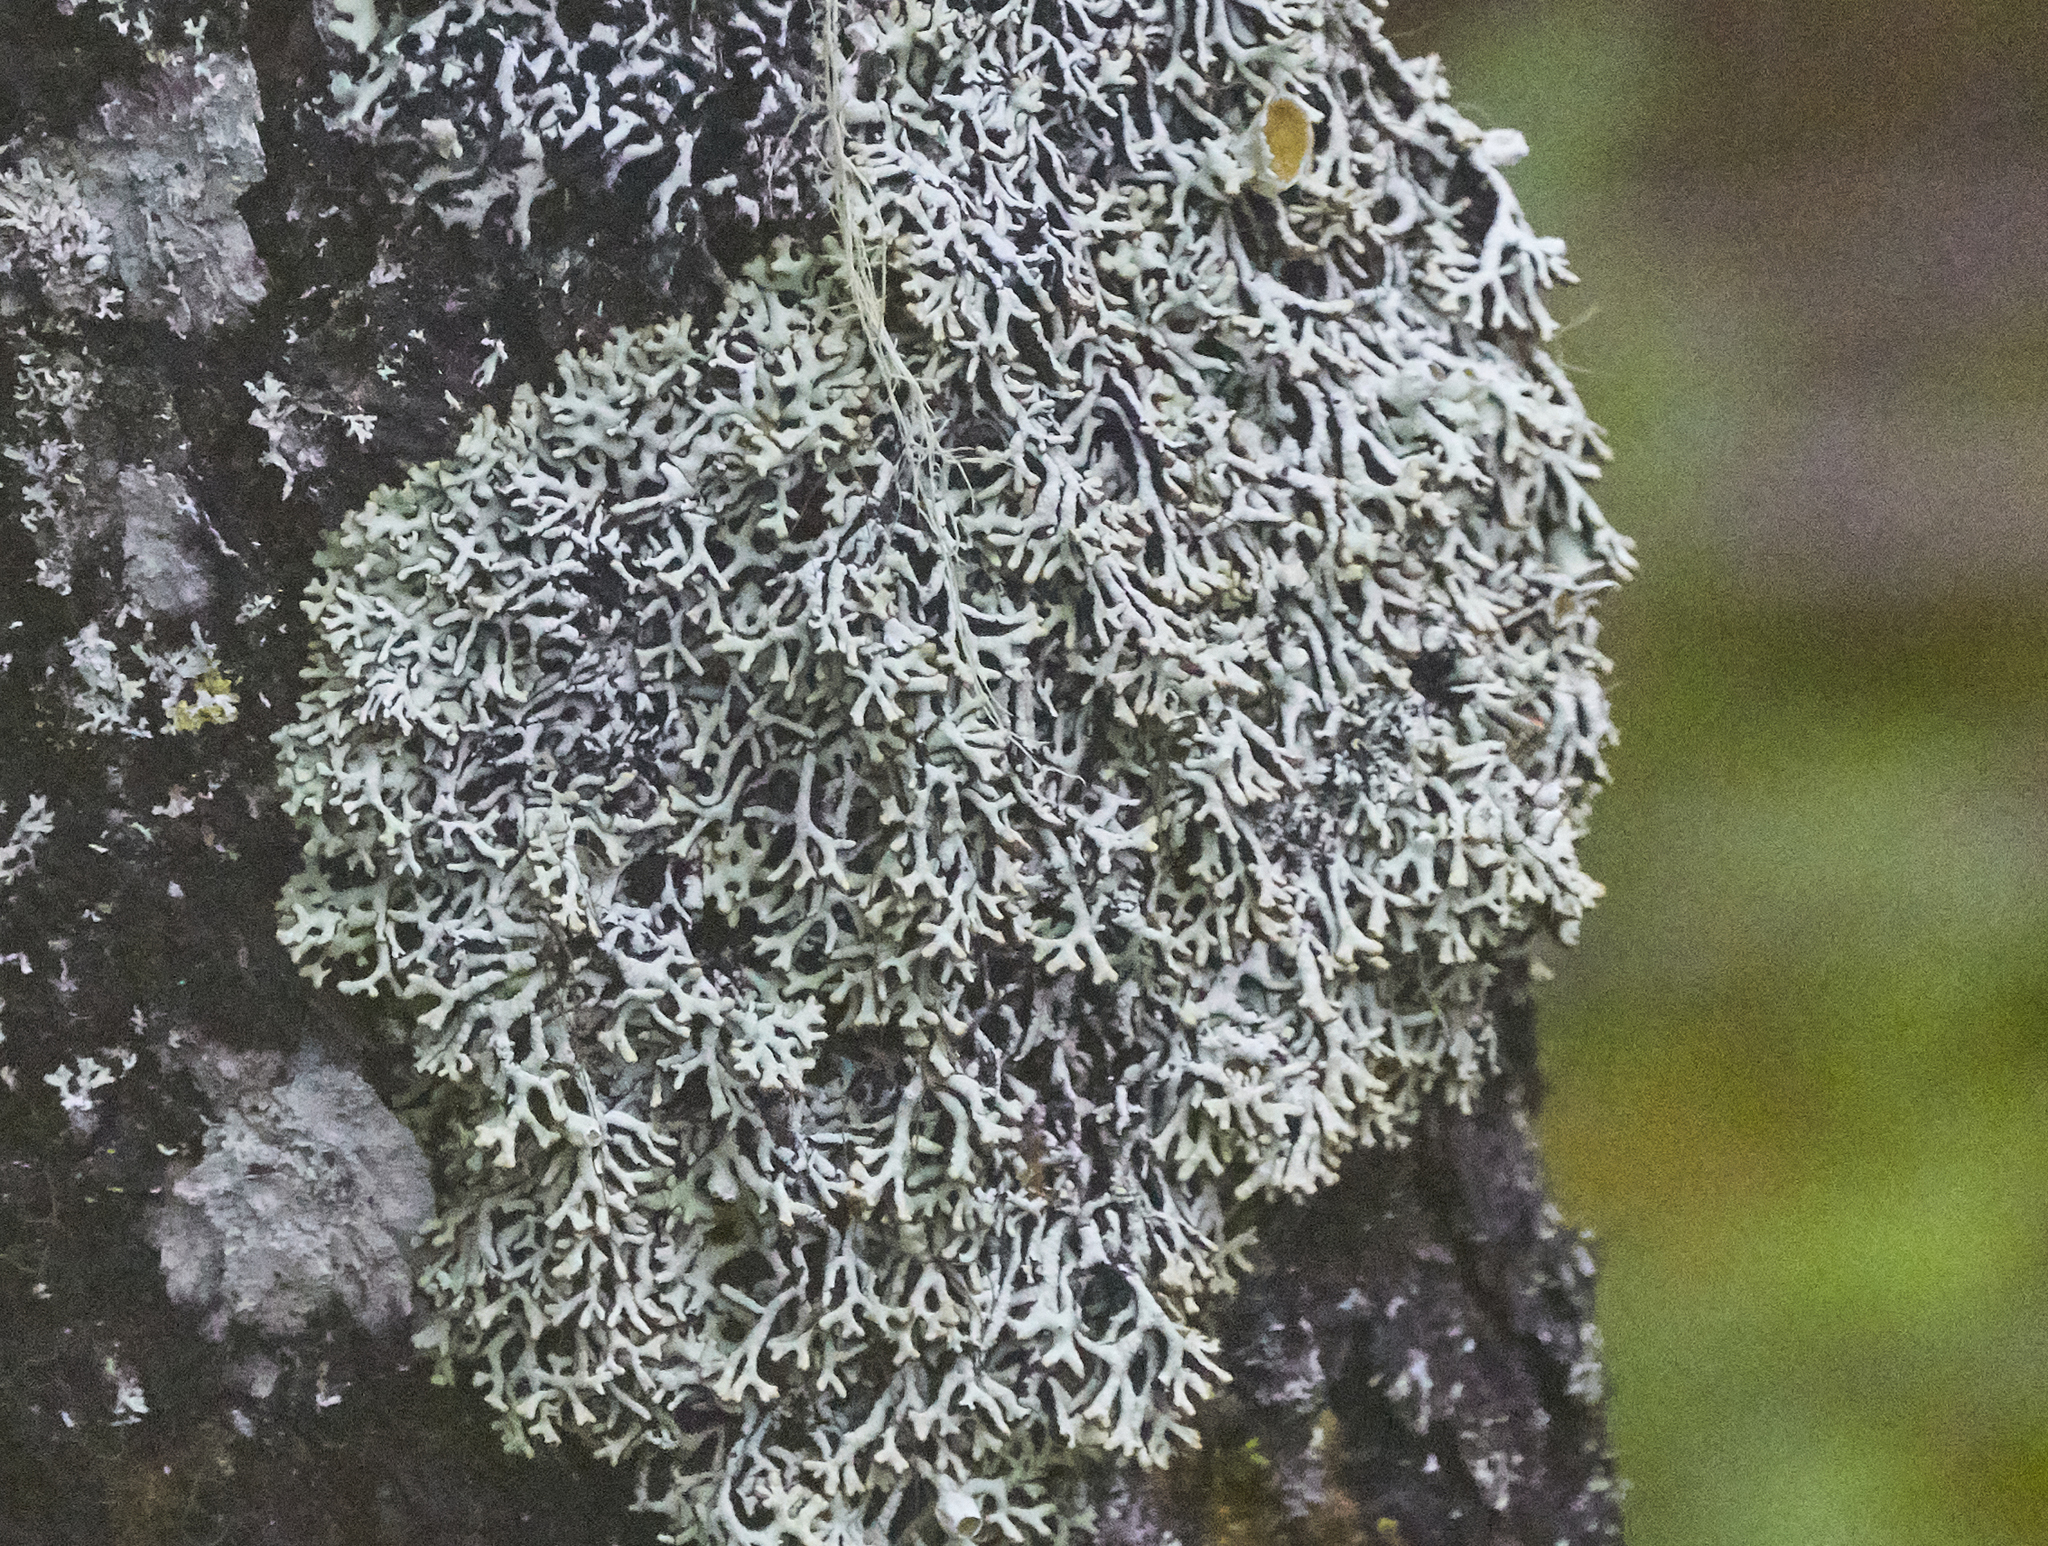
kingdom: Fungi
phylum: Ascomycota
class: Lecanoromycetes
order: Lecanorales
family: Parmeliaceae
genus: Hypogymnia
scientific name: Hypogymnia krogiae
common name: Freckled tube lichen
